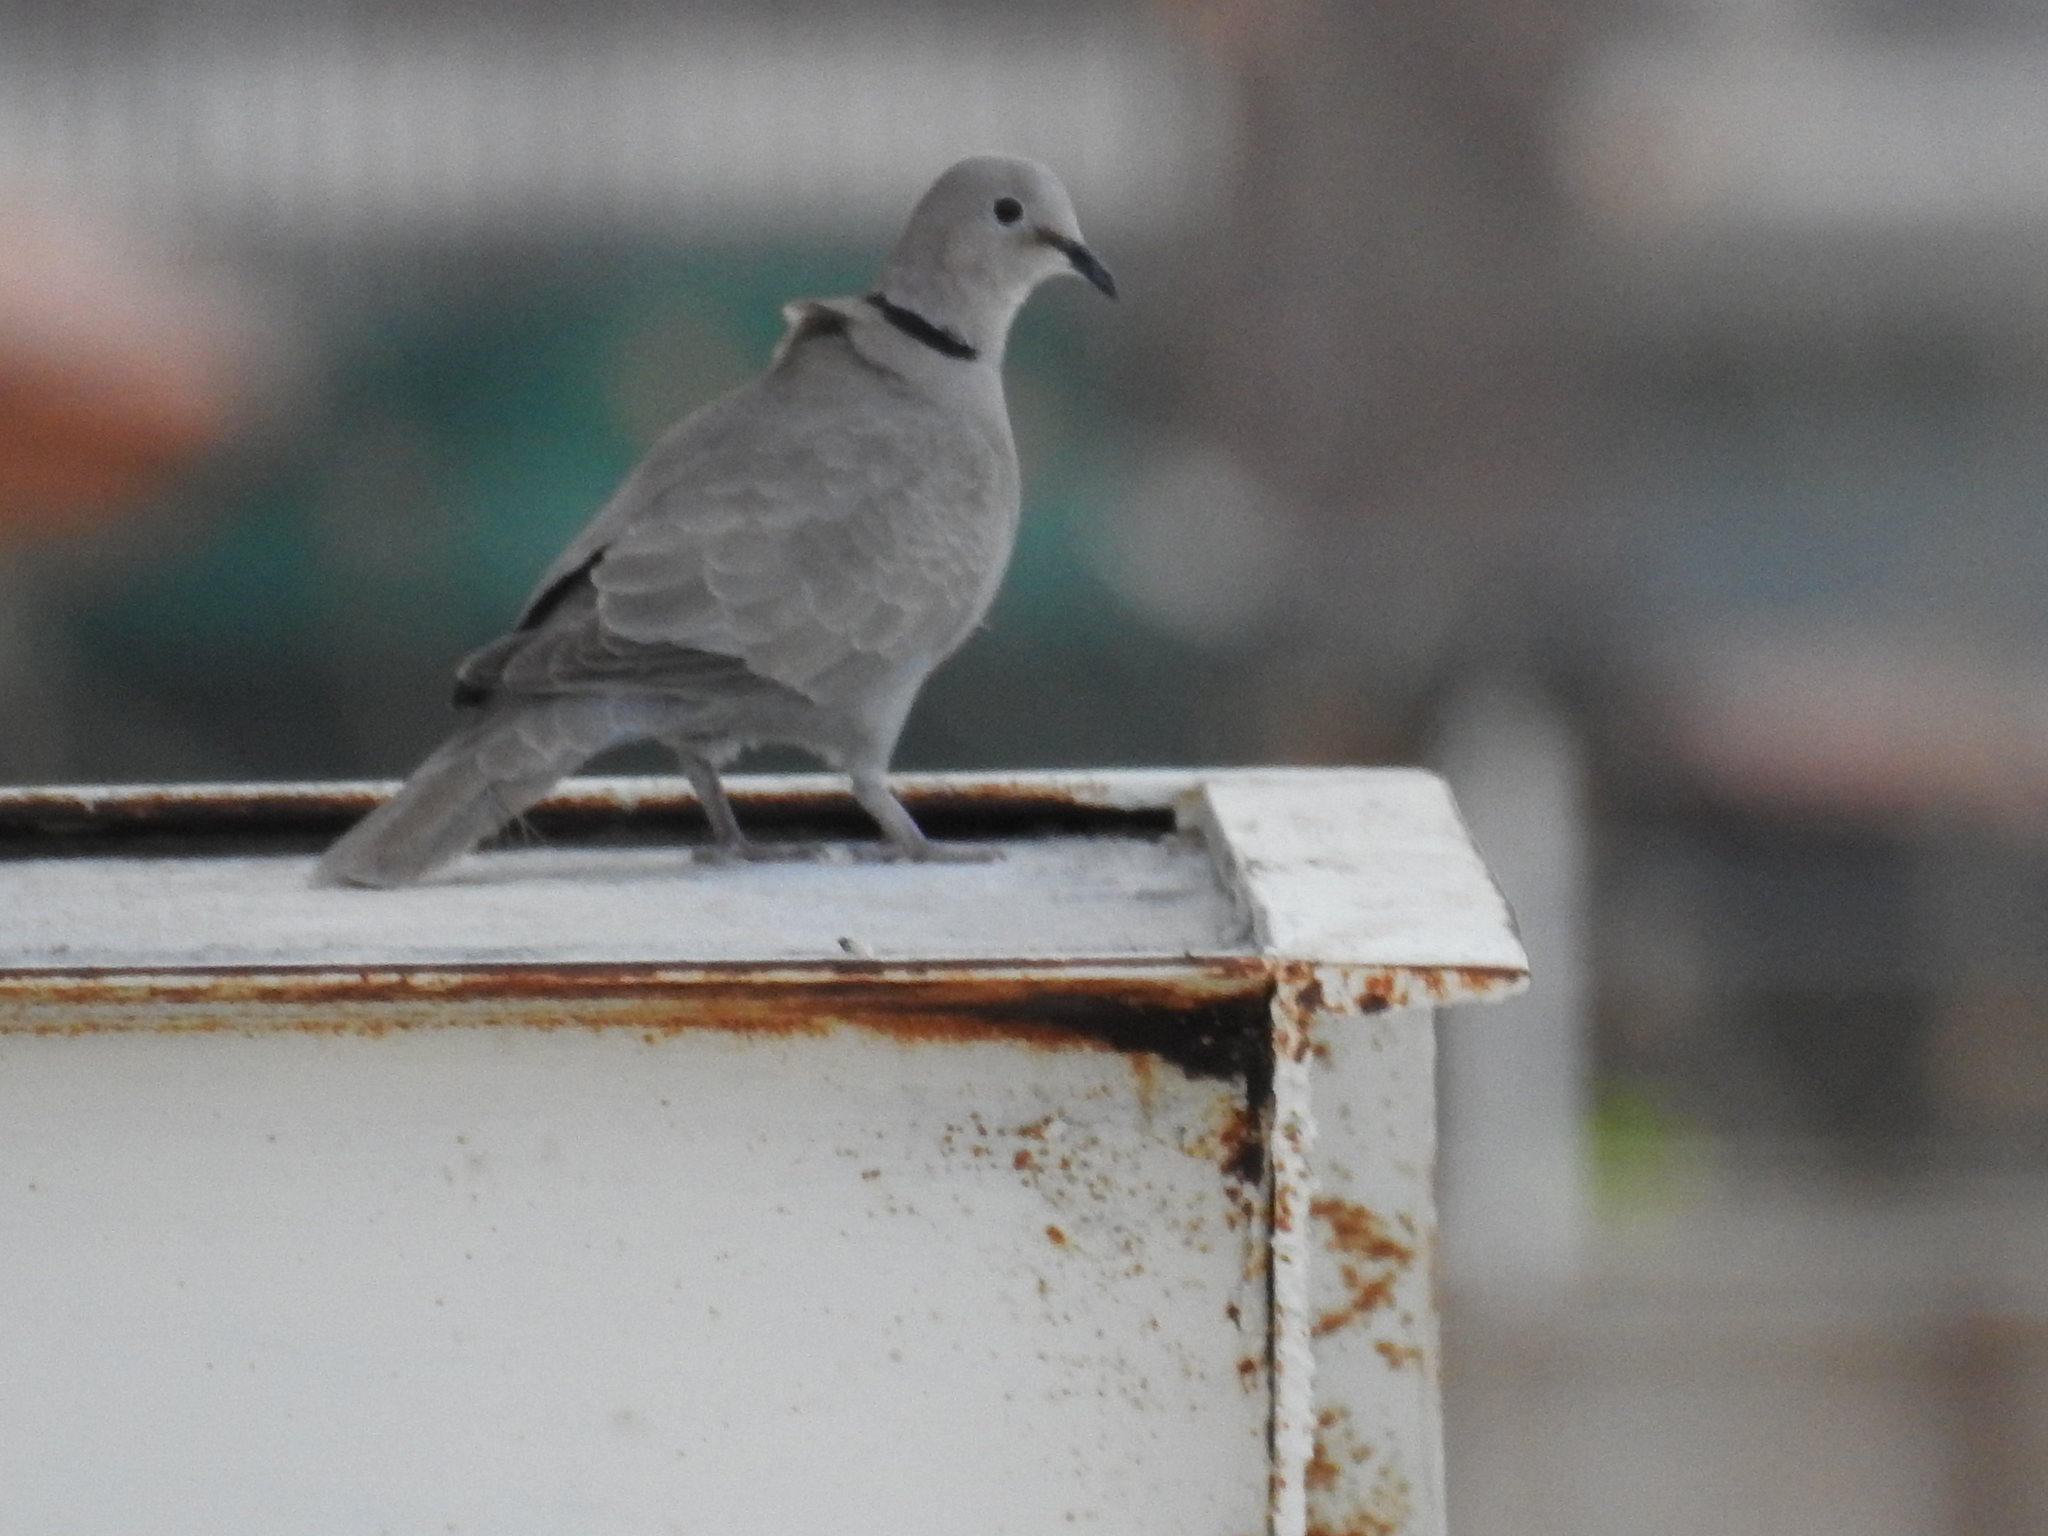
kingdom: Animalia
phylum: Chordata
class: Aves
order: Columbiformes
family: Columbidae
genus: Streptopelia
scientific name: Streptopelia decaocto
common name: Eurasian collared dove
